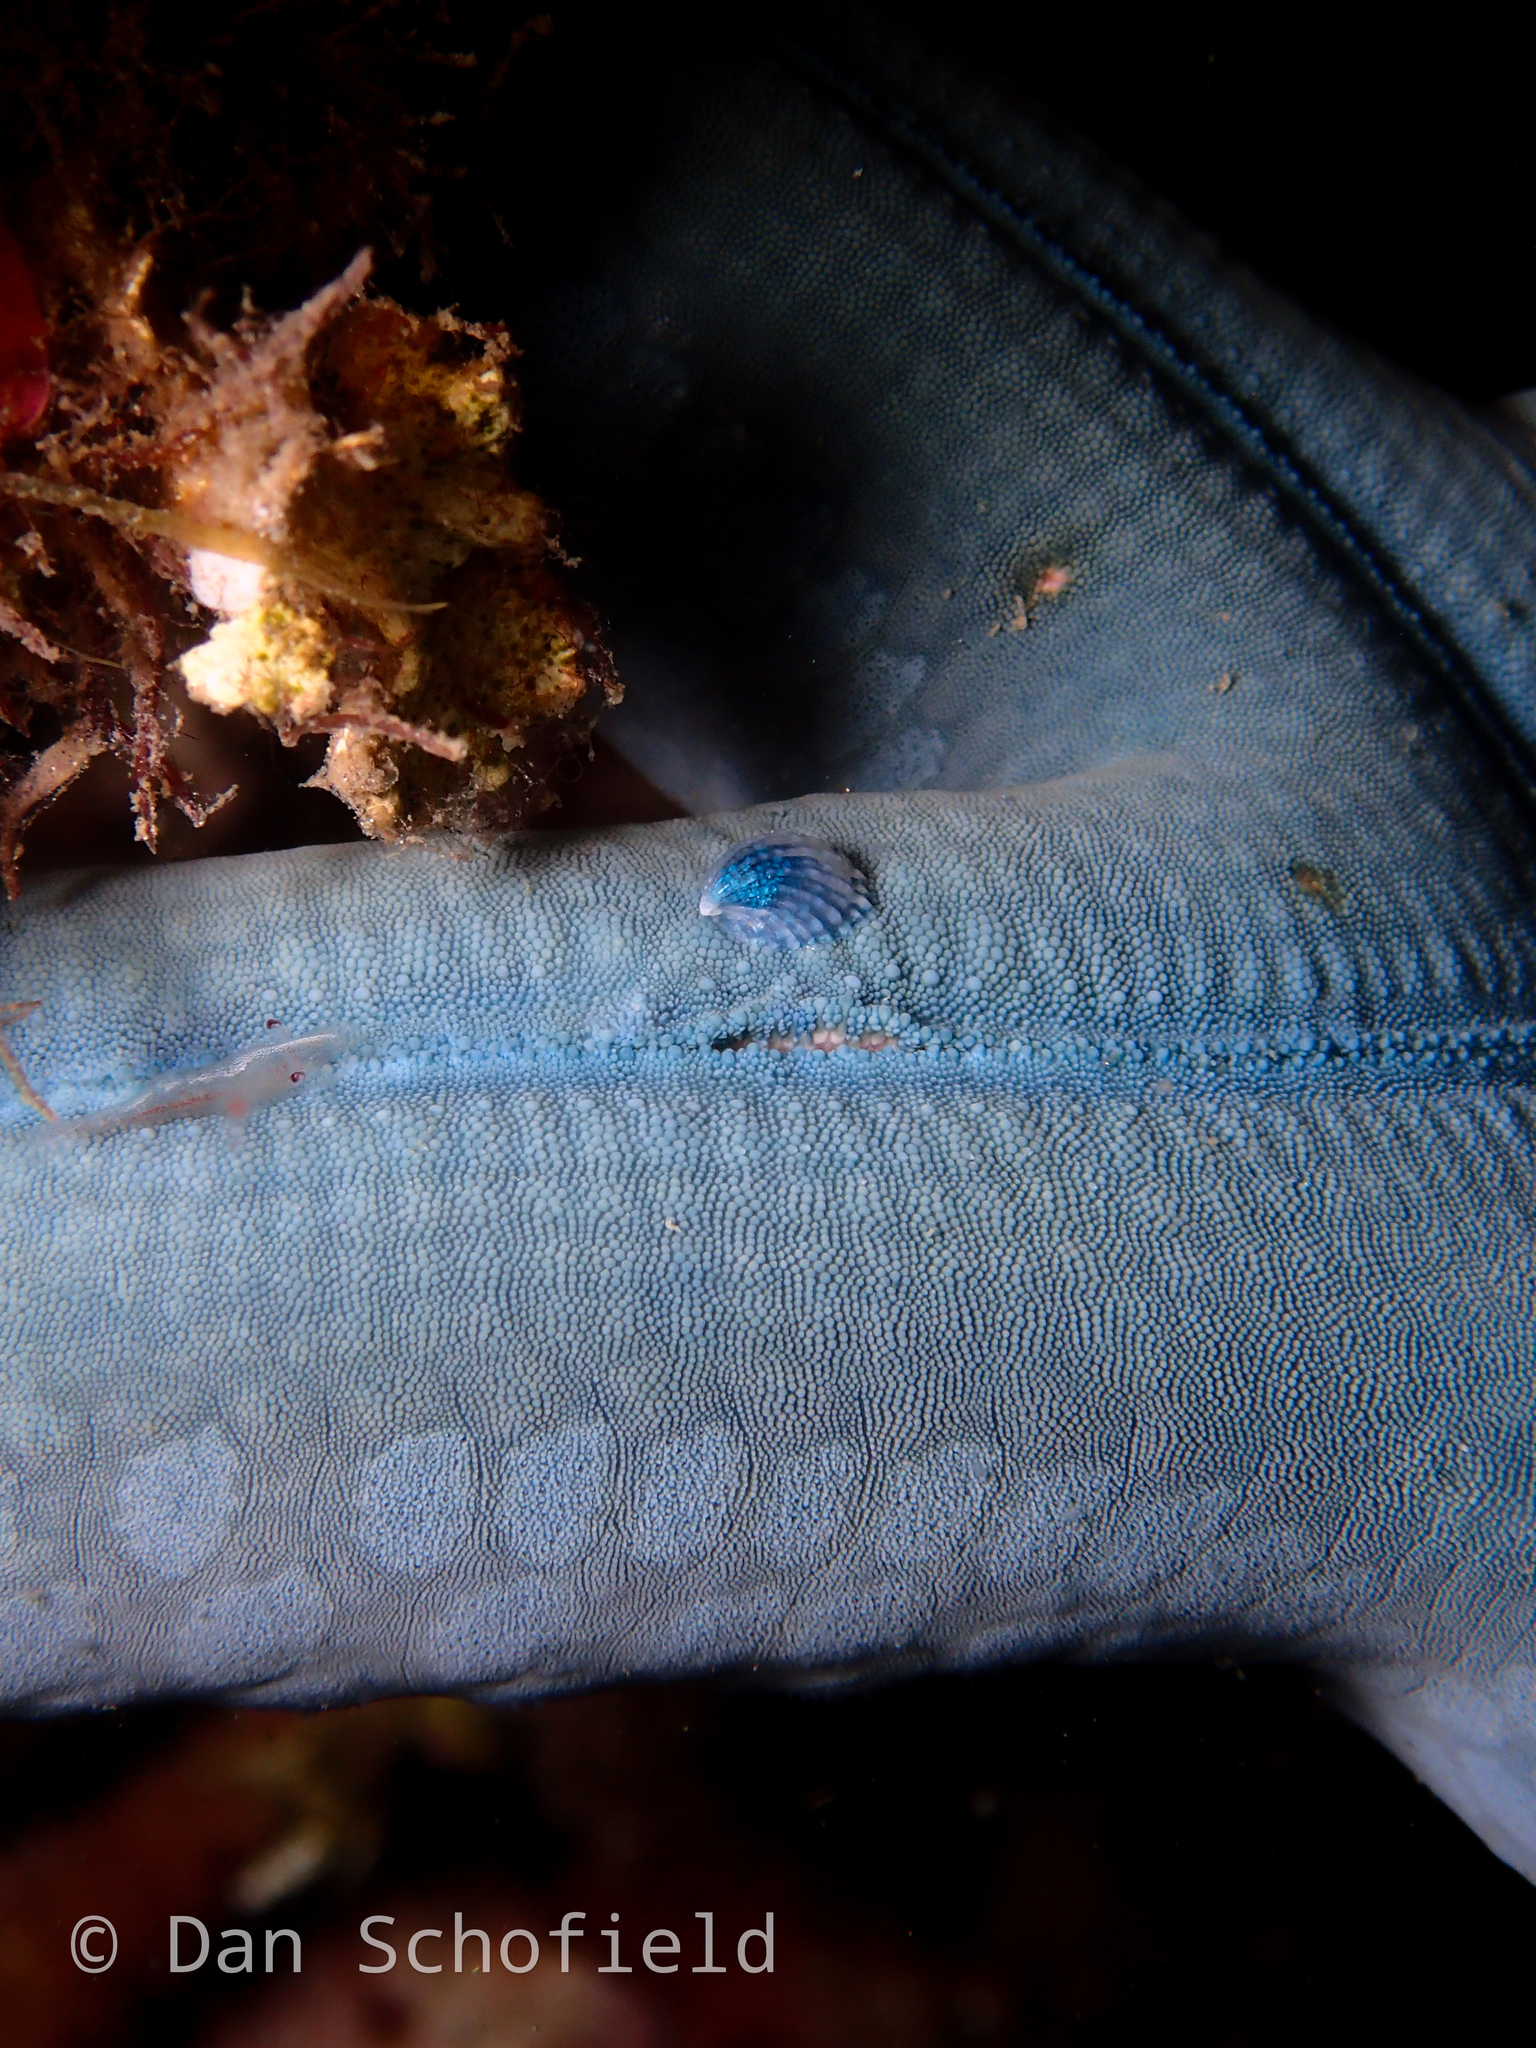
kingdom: Animalia
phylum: Echinodermata
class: Asteroidea
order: Valvatida
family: Ophidiasteridae
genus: Linckia
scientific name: Linckia laevigata
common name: Azure sea star
